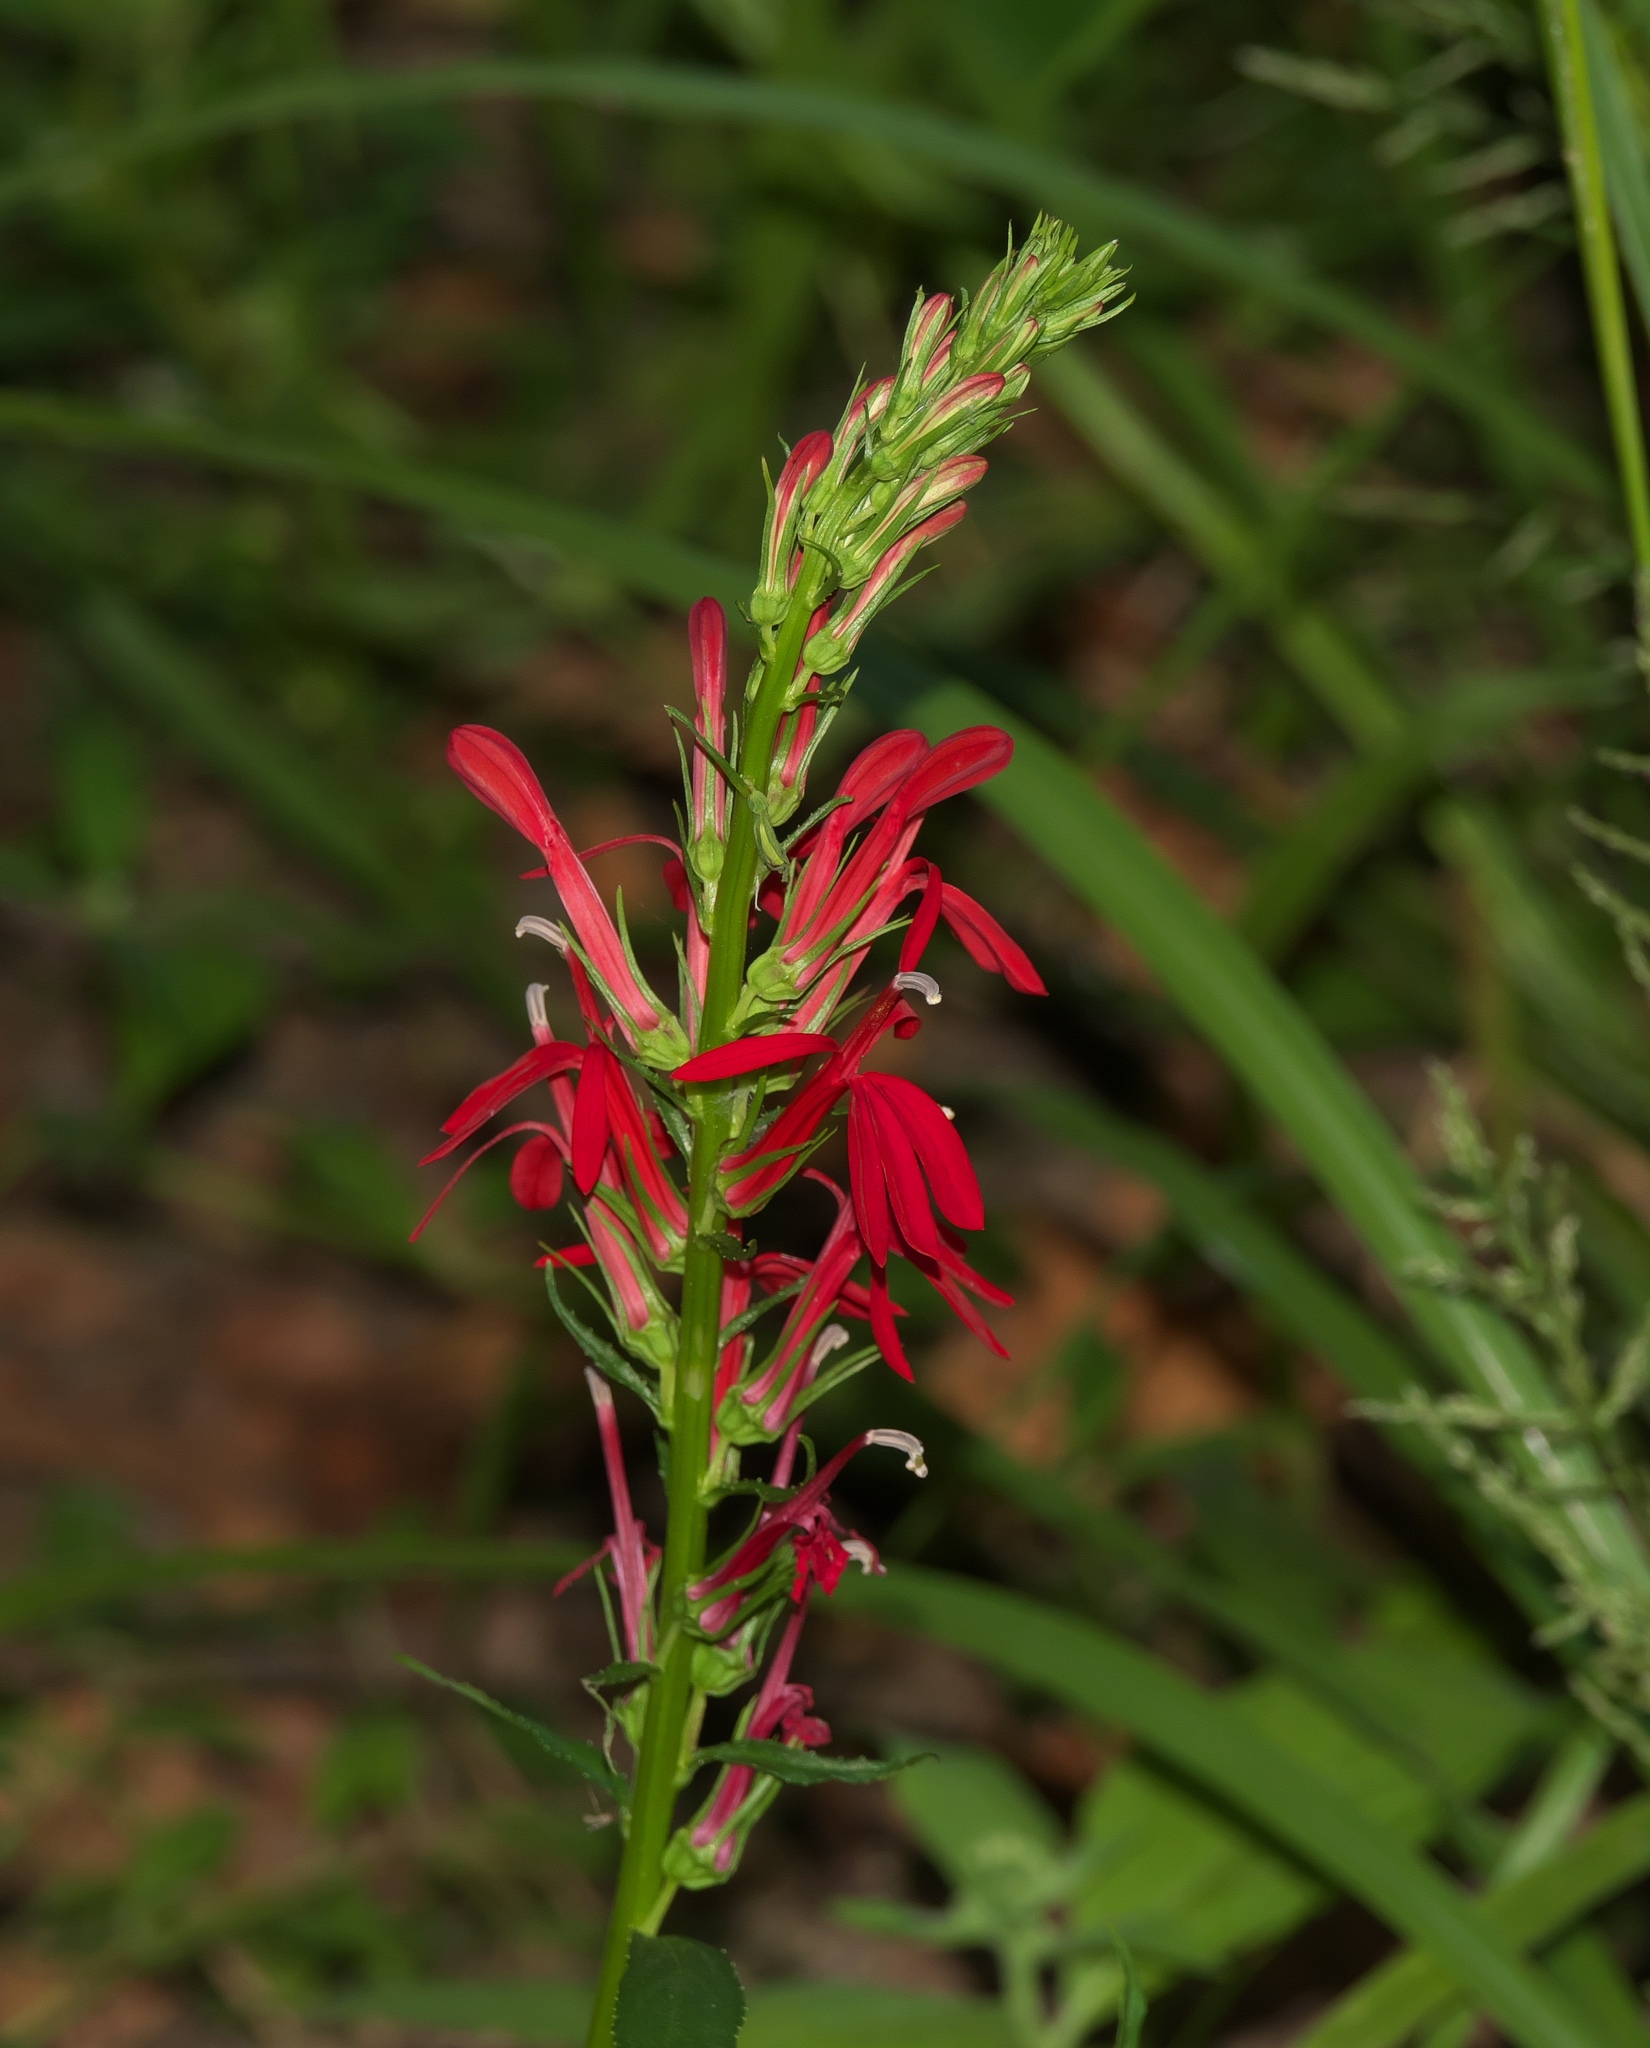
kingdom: Plantae
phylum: Tracheophyta
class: Magnoliopsida
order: Asterales
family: Campanulaceae
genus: Lobelia
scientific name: Lobelia cardinalis
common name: Cardinal flower
